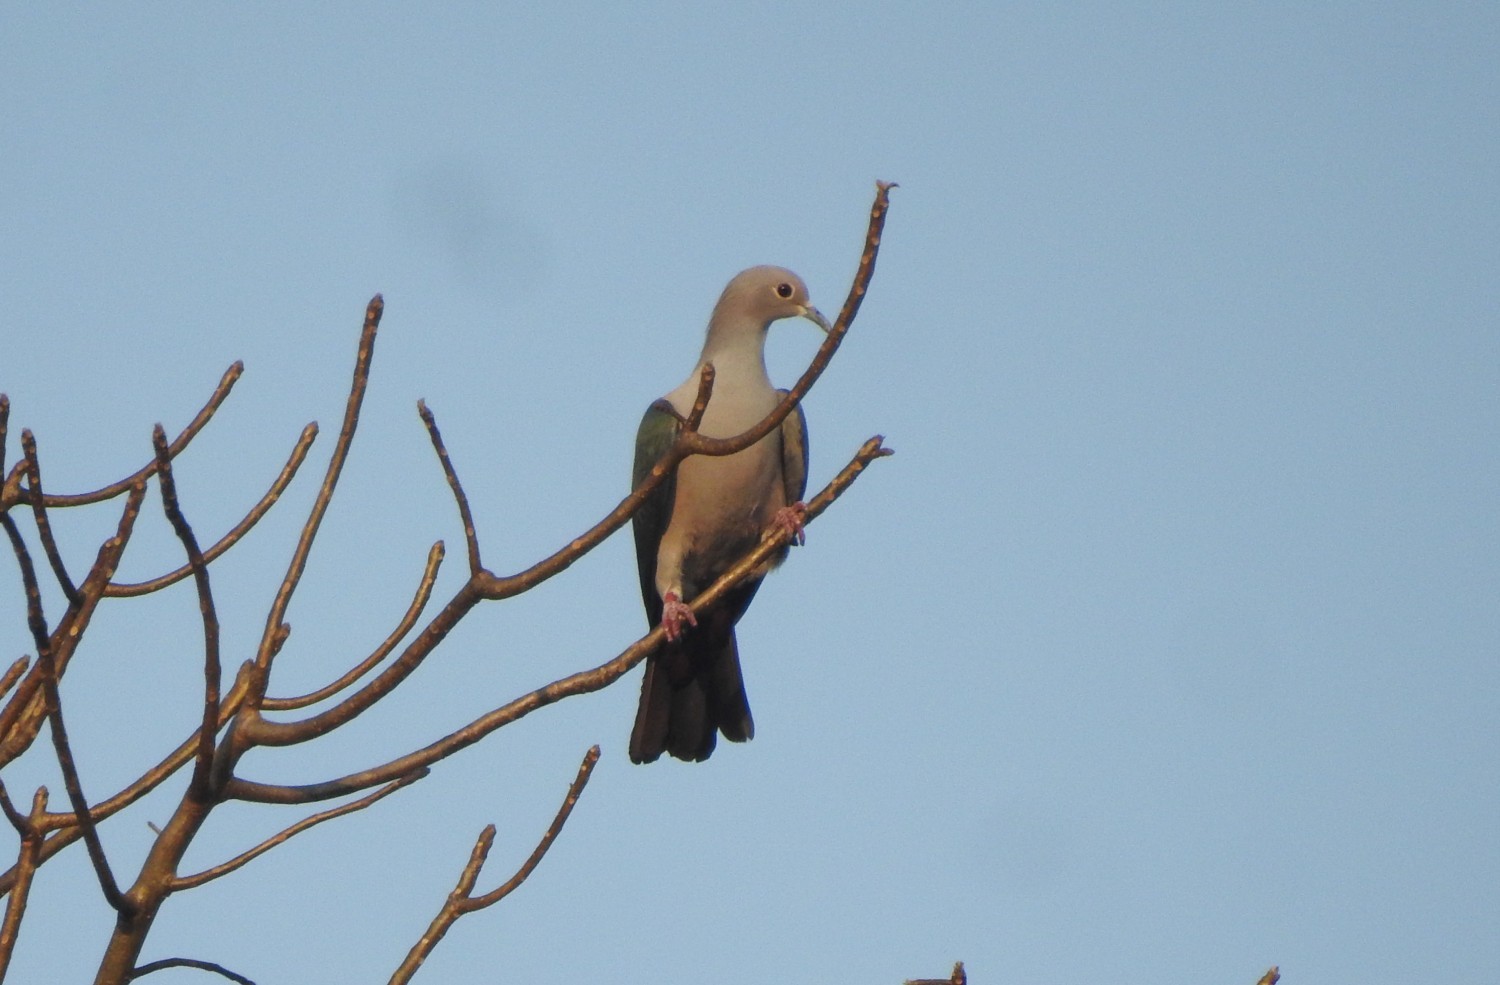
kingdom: Animalia
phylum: Chordata
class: Aves
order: Columbiformes
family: Columbidae
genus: Ducula
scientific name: Ducula aenea
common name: Green imperial pigeon
